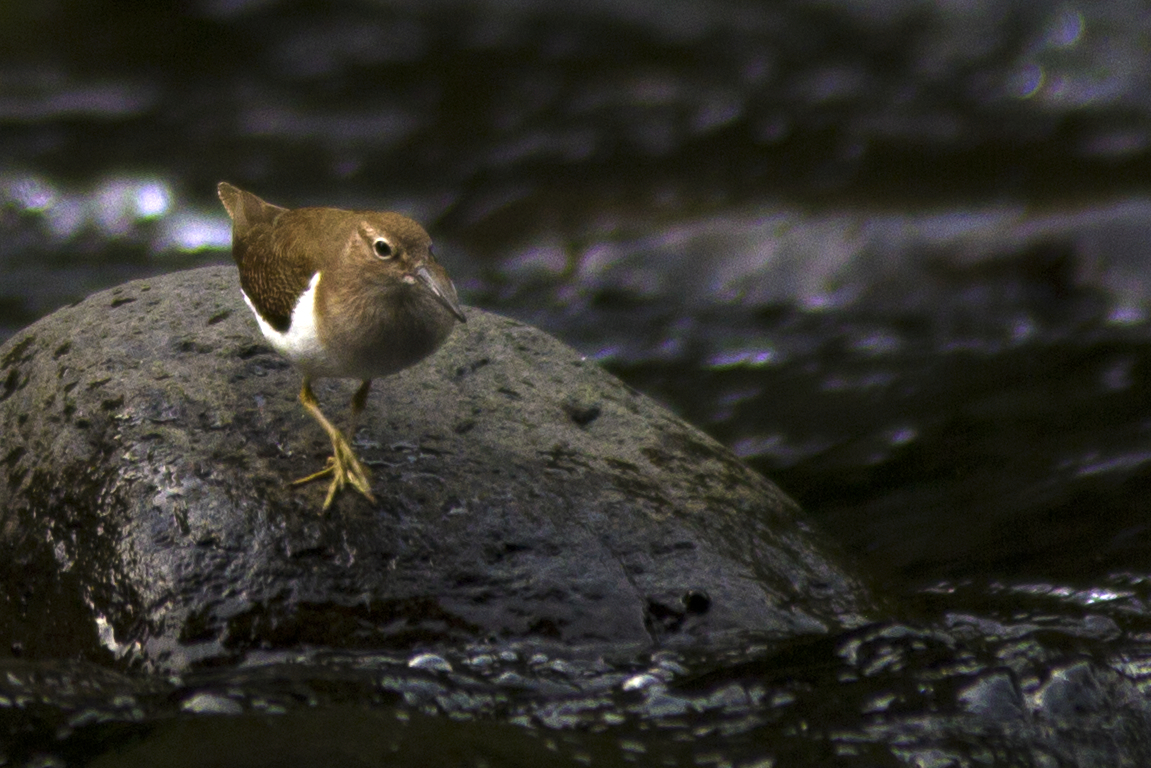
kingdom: Animalia
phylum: Chordata
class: Aves
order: Charadriiformes
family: Scolopacidae
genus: Actitis
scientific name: Actitis hypoleucos
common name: Common sandpiper
